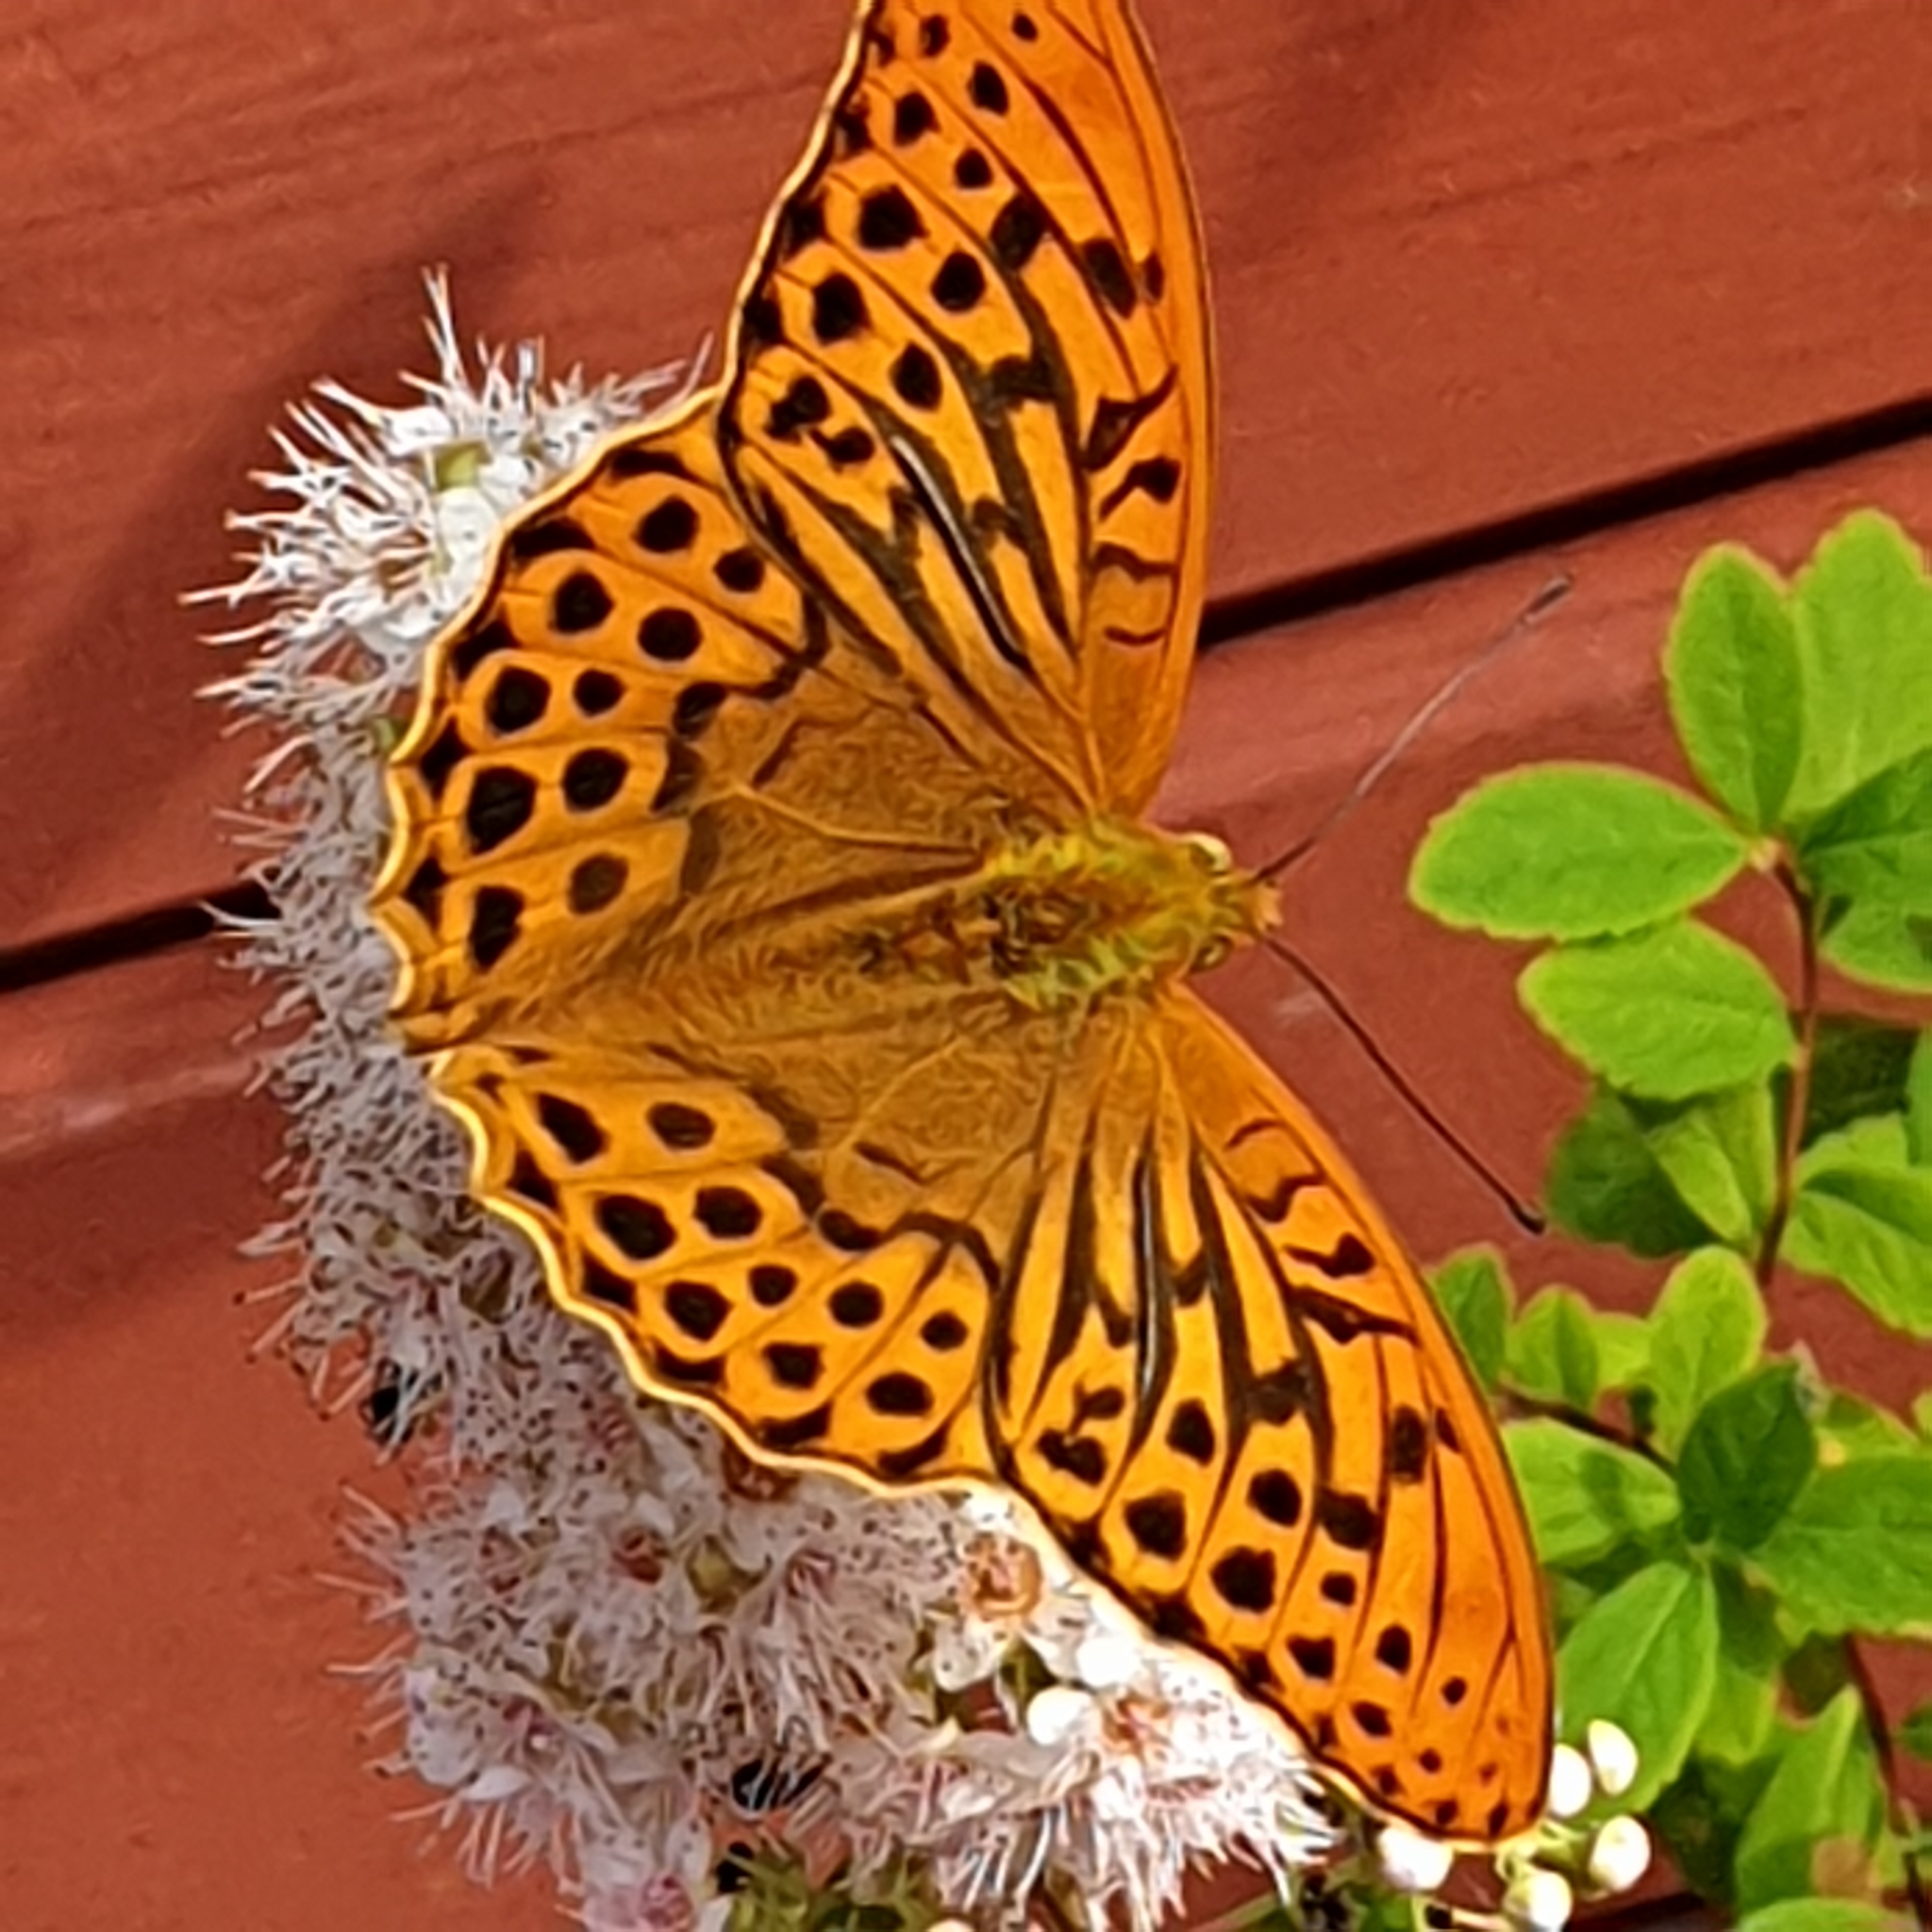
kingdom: Animalia
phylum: Arthropoda
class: Insecta
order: Lepidoptera
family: Nymphalidae
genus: Argynnis
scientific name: Argynnis paphia
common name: Silver-washed fritillary
